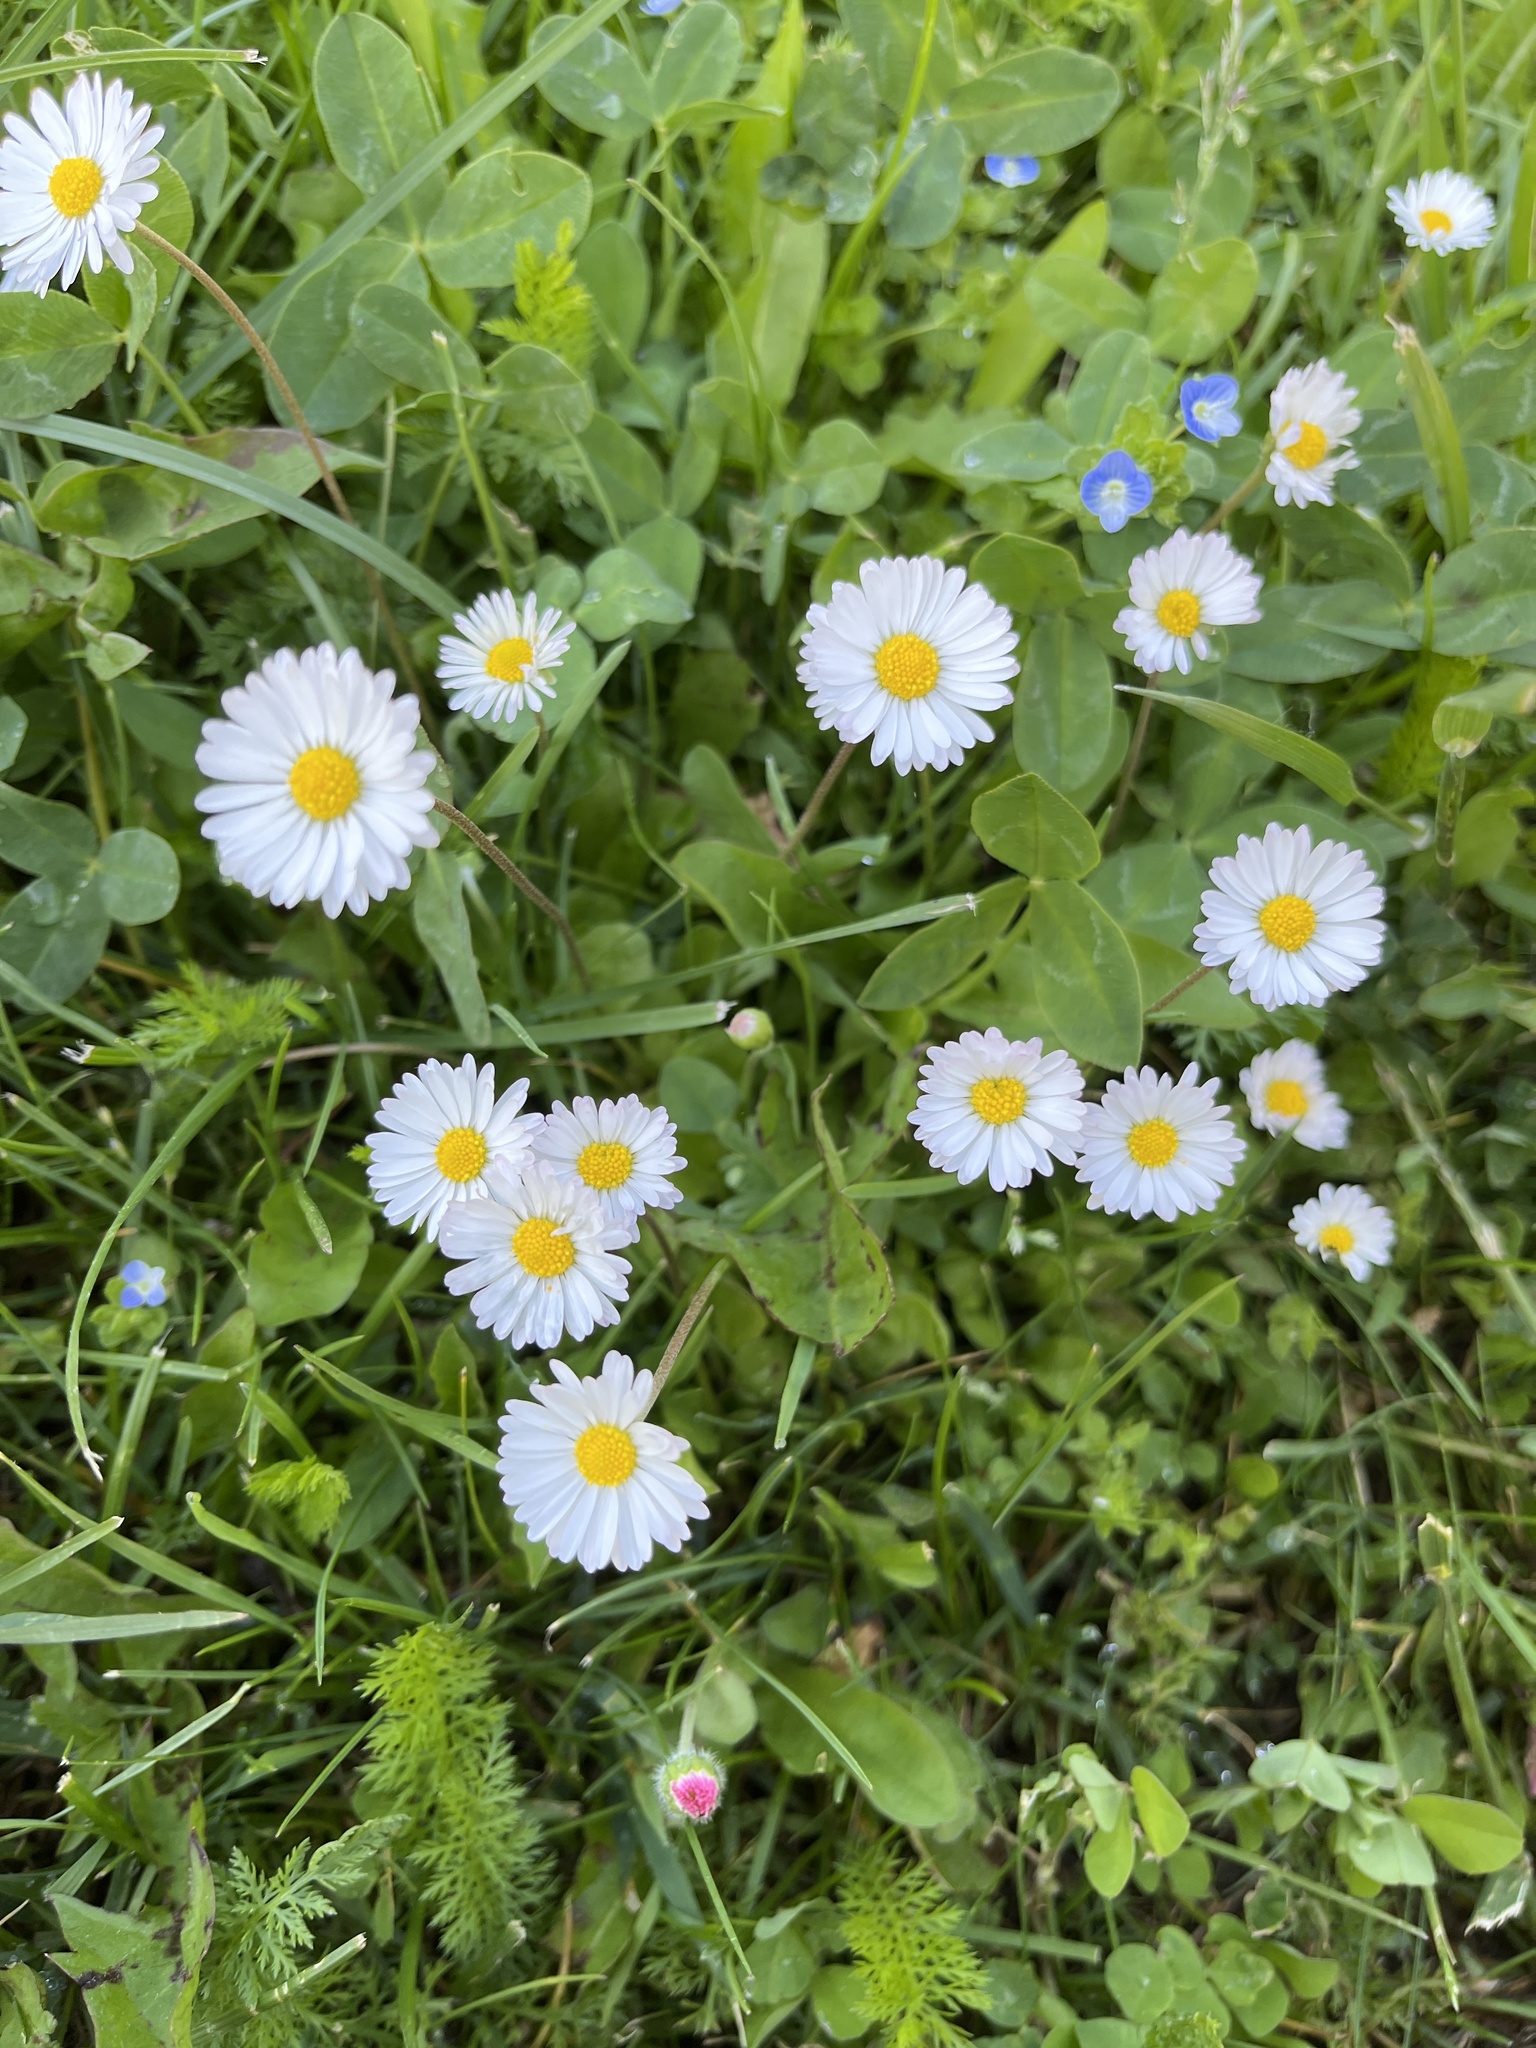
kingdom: Plantae
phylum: Tracheophyta
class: Magnoliopsida
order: Asterales
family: Asteraceae
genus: Bellis
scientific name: Bellis perennis
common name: Lawndaisy
